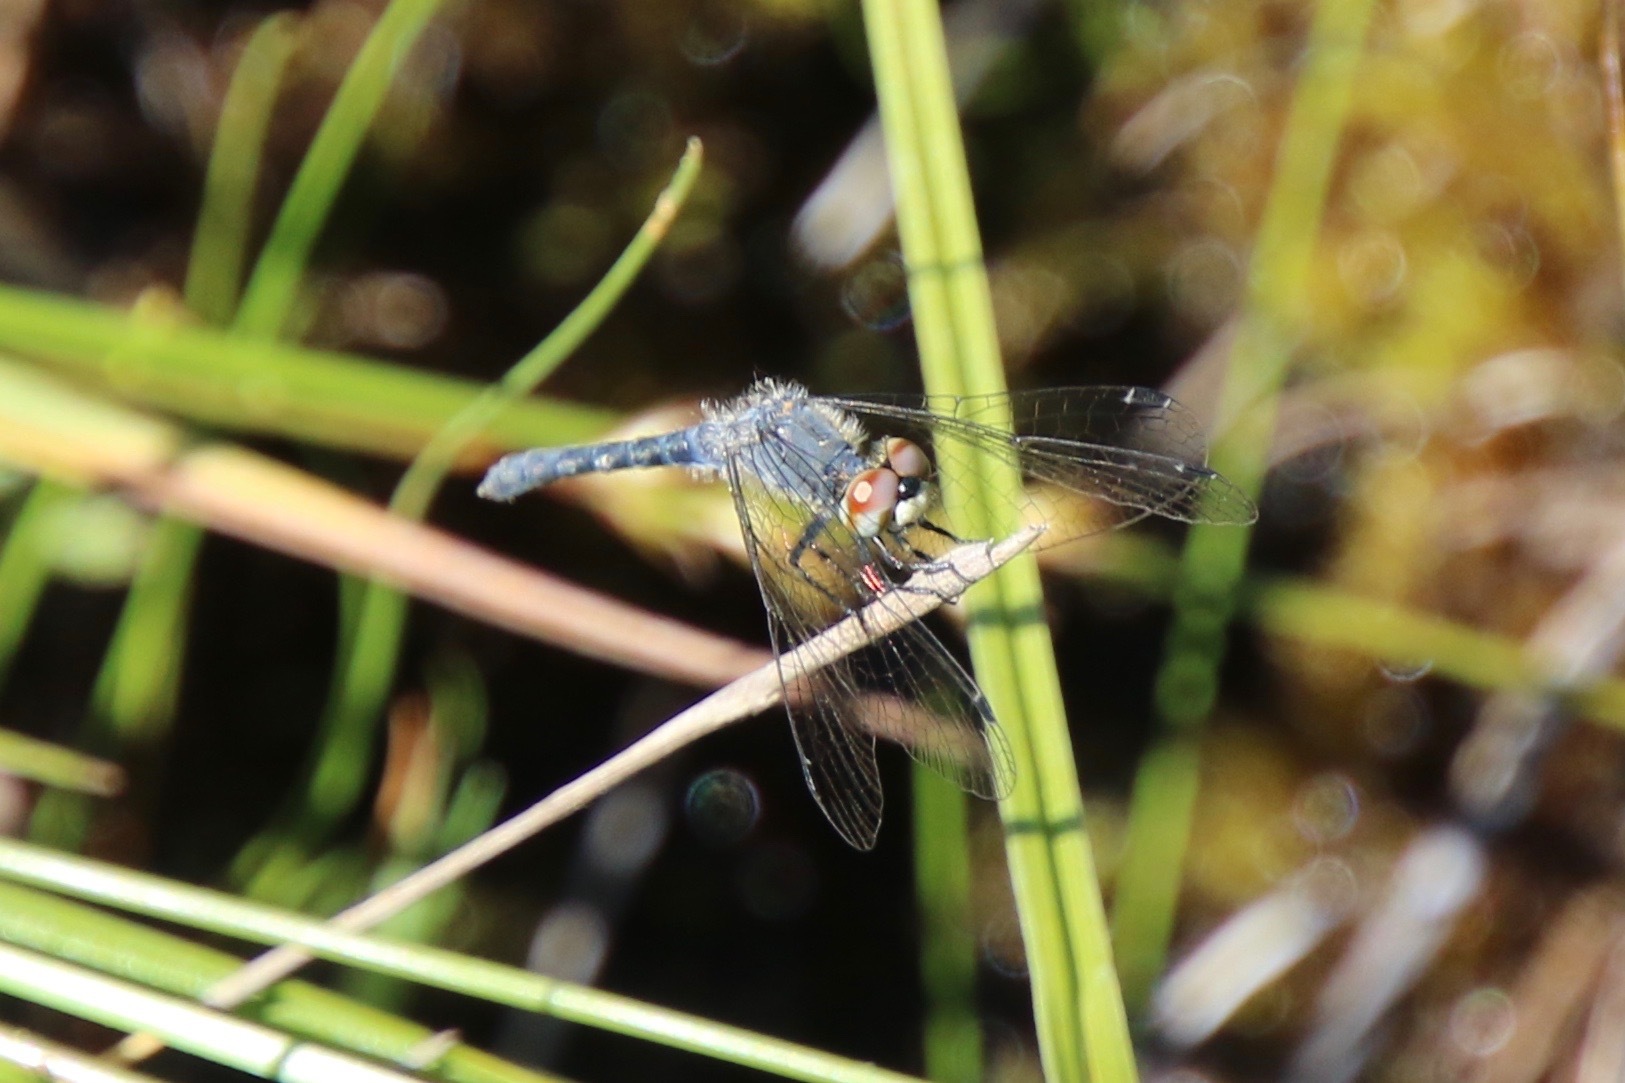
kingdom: Animalia
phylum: Arthropoda
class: Insecta
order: Odonata
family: Libellulidae
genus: Nannothemis
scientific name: Nannothemis bella
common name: Elfin skimmer
